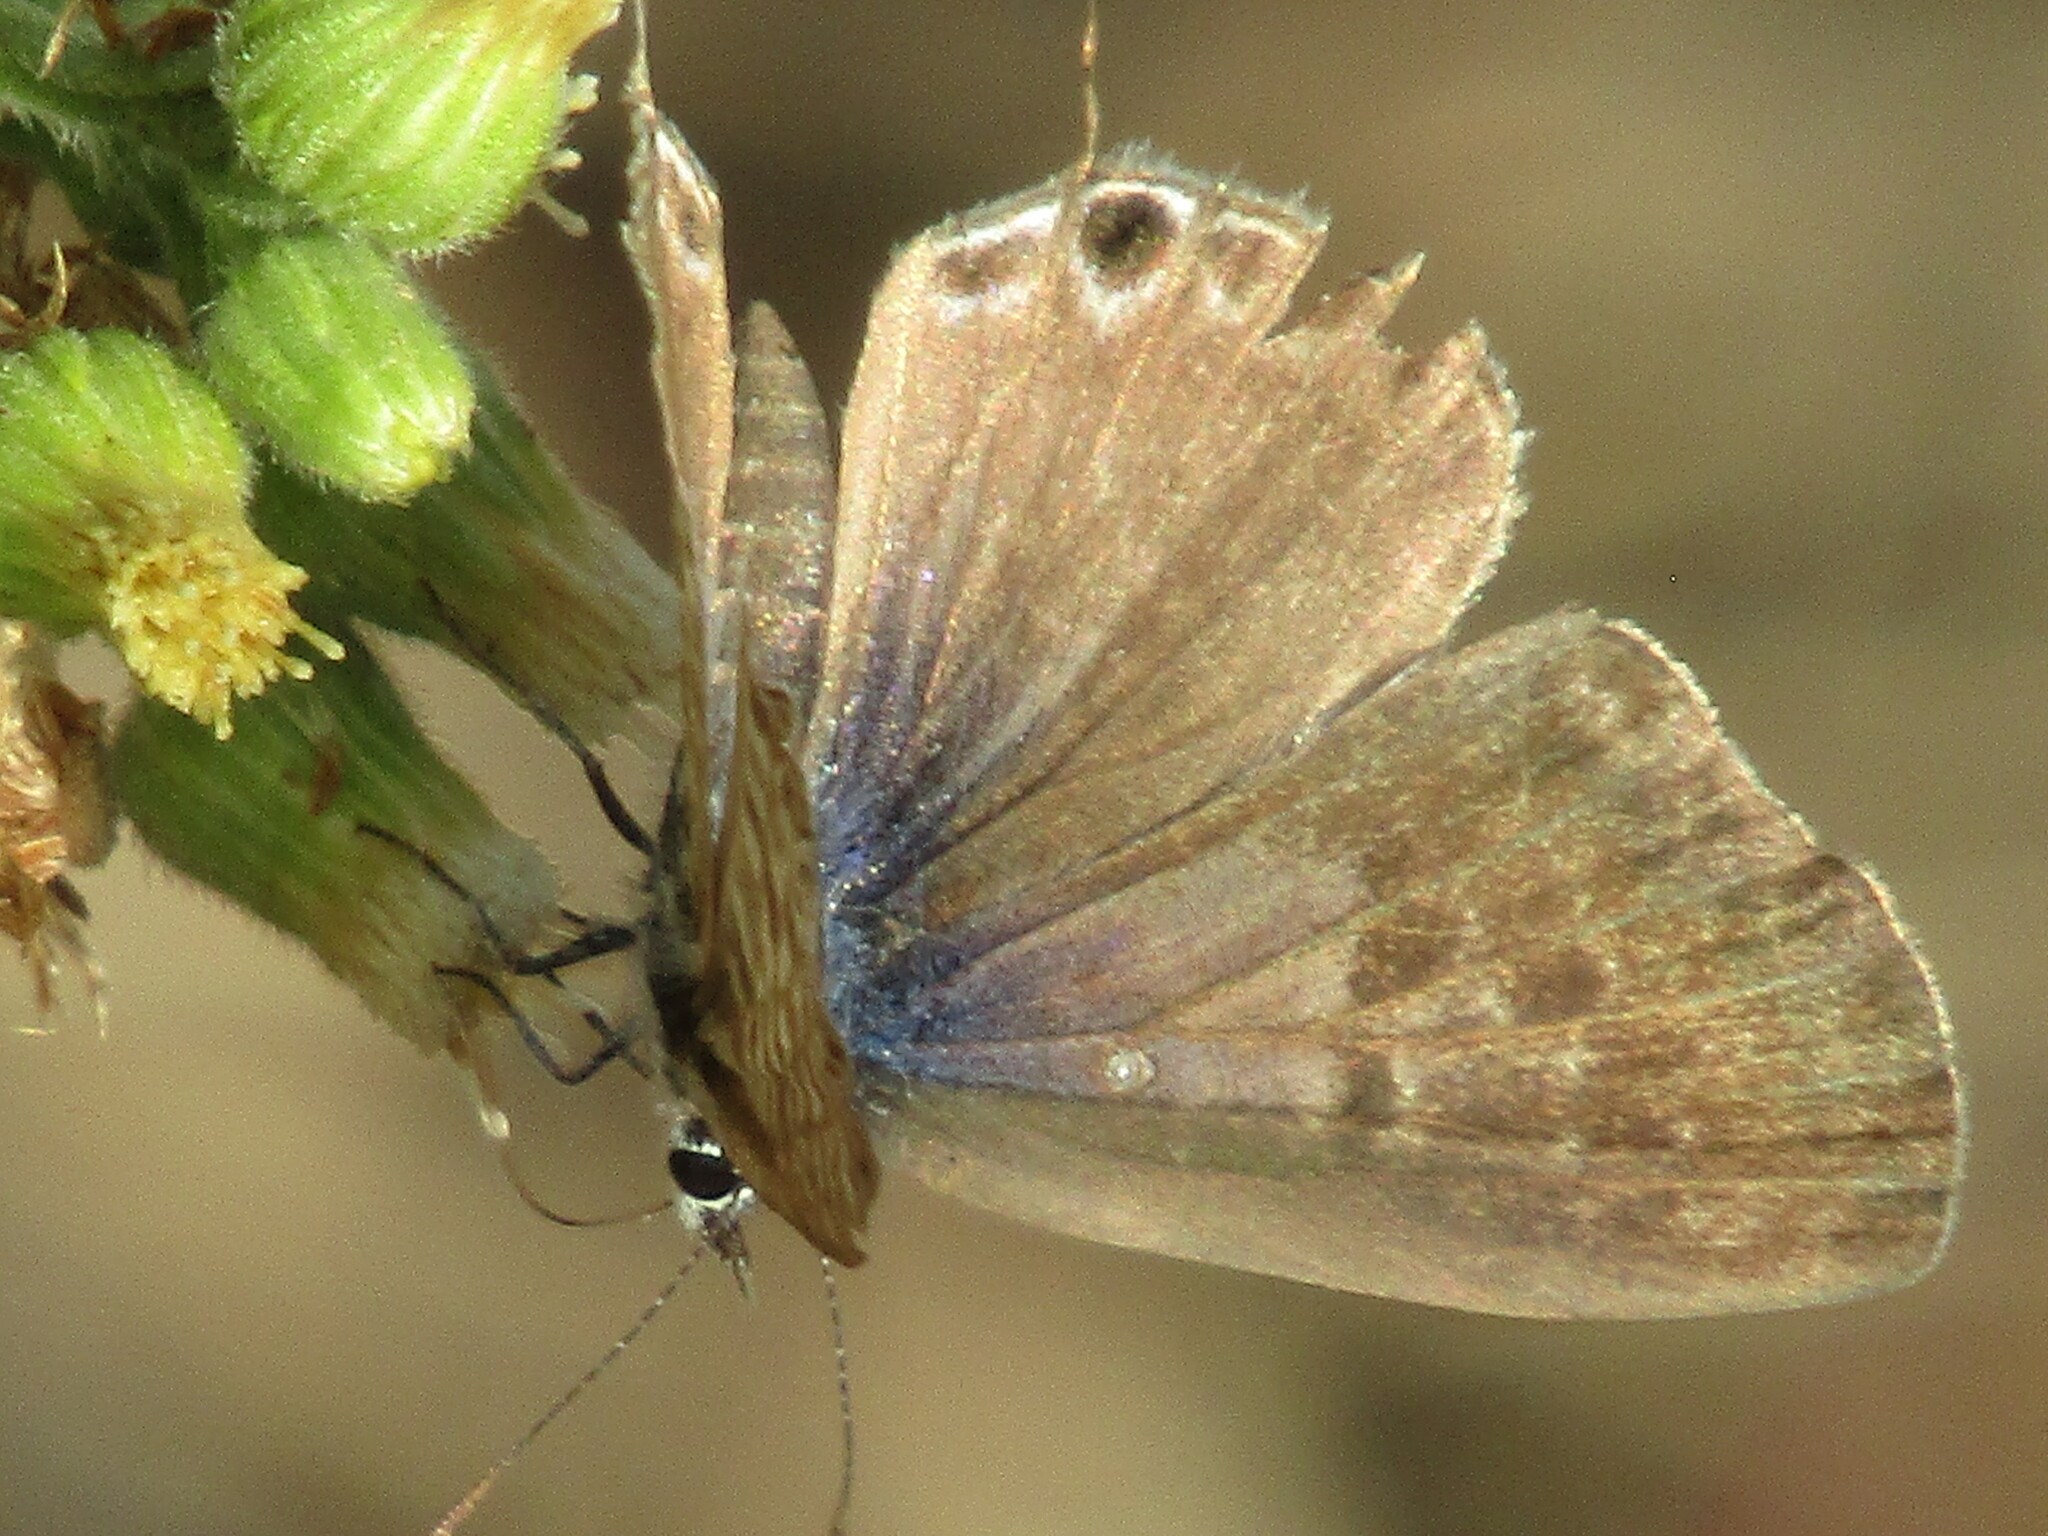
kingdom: Animalia
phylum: Arthropoda
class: Insecta
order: Lepidoptera
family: Lycaenidae
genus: Leptotes
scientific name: Leptotes pirithous
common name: Lang's short-tailed blue
